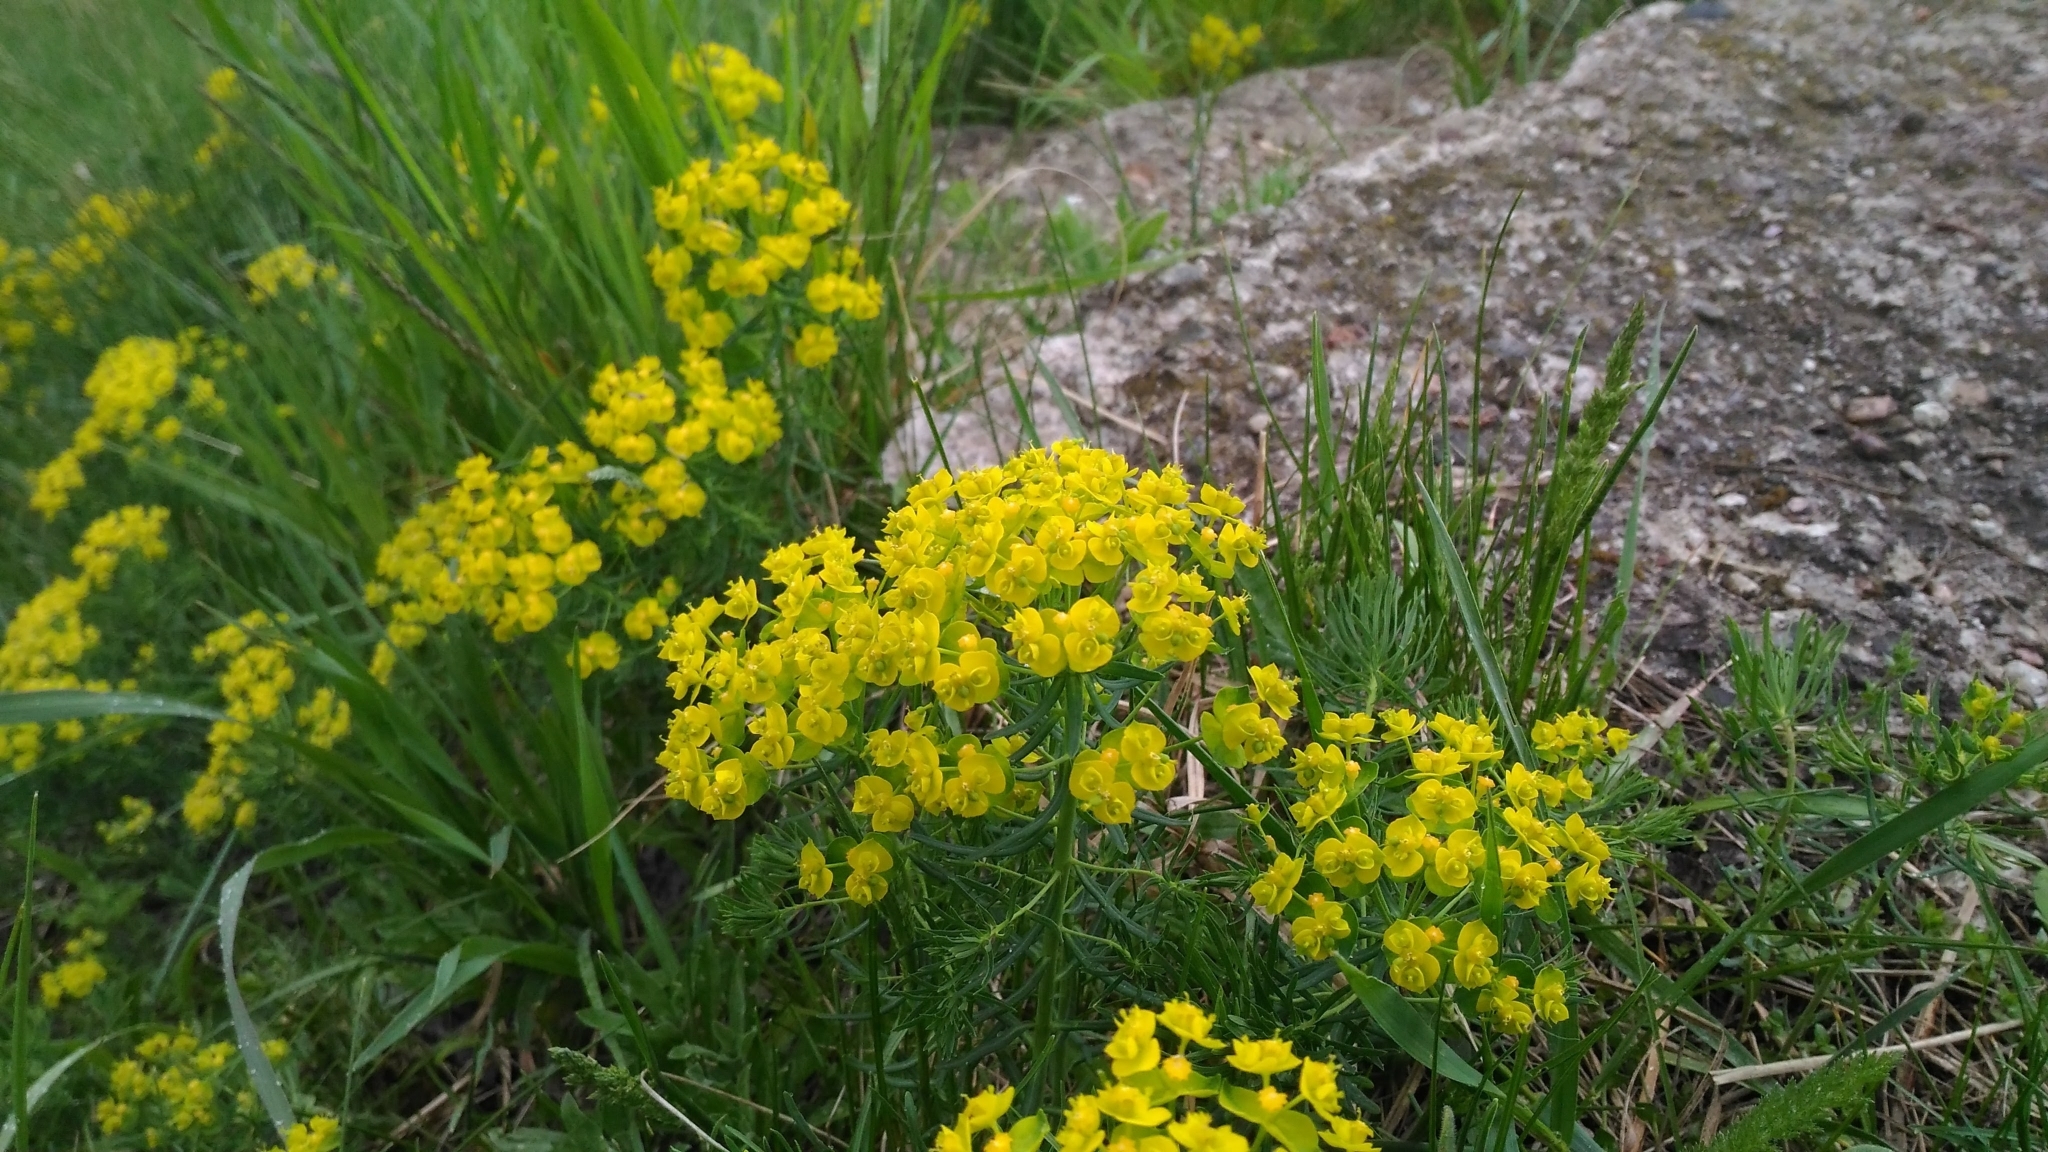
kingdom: Plantae
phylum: Tracheophyta
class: Magnoliopsida
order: Malpighiales
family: Euphorbiaceae
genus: Euphorbia
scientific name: Euphorbia cyparissias
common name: Cypress spurge
